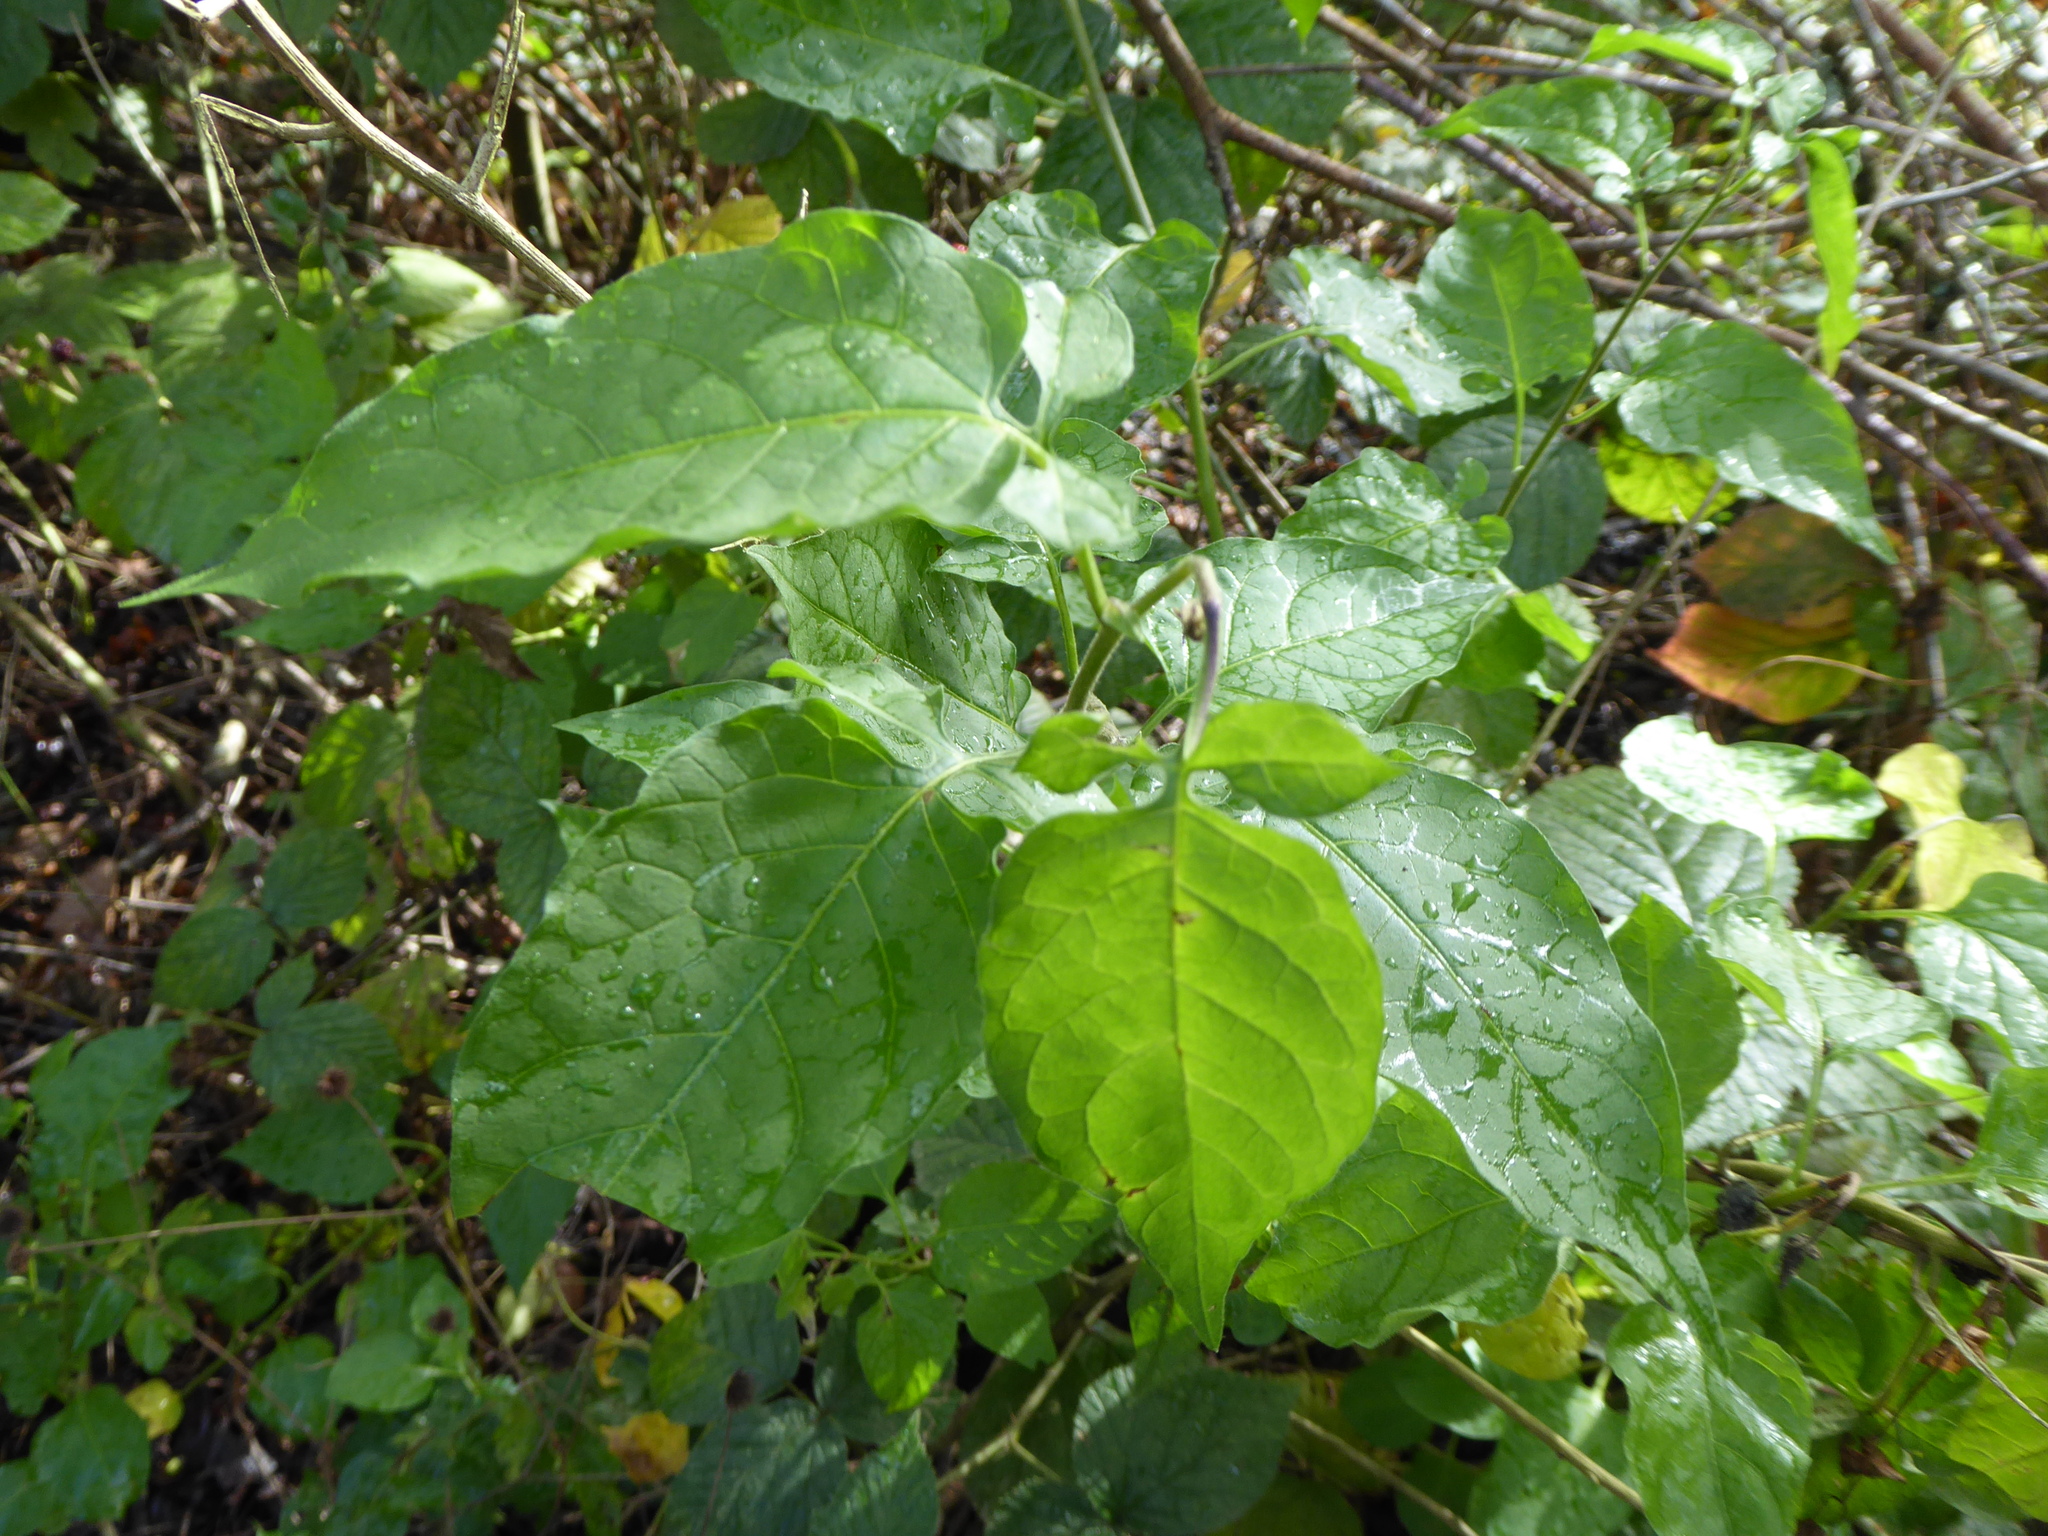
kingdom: Plantae
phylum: Tracheophyta
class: Magnoliopsida
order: Solanales
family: Solanaceae
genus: Solanum
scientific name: Solanum dulcamara
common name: Climbing nightshade
